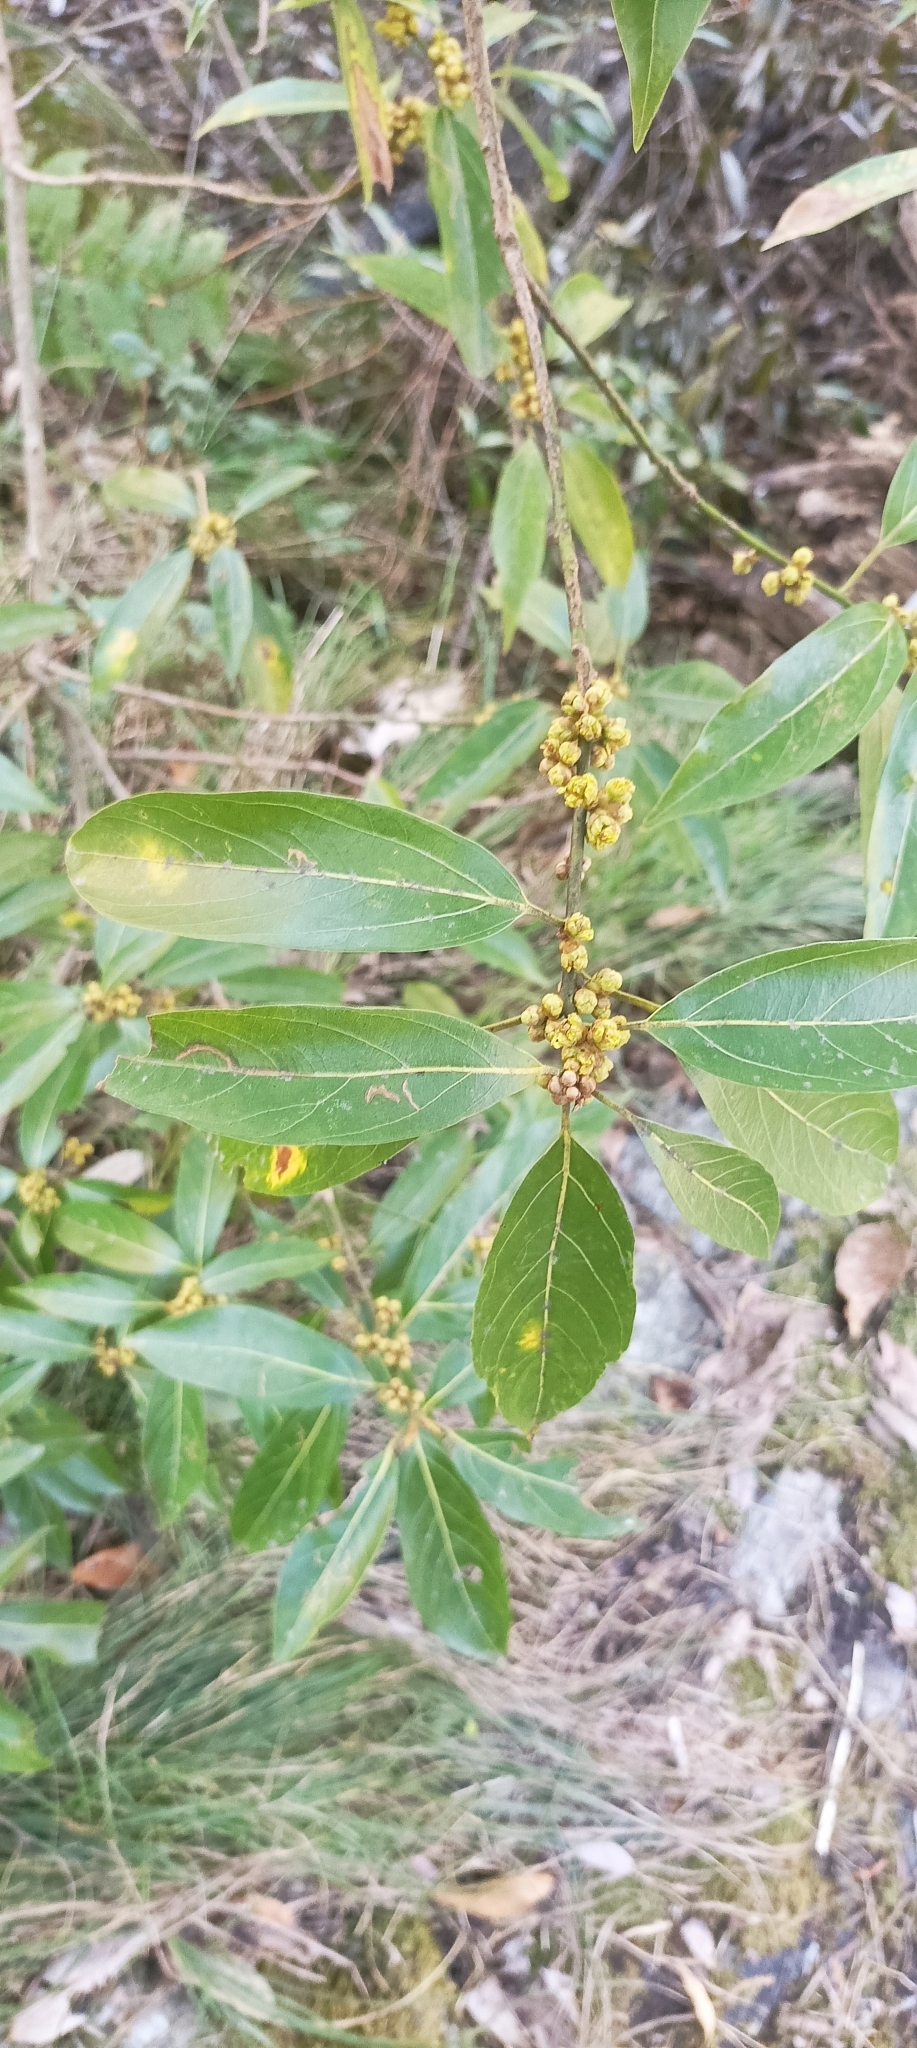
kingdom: Plantae
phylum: Tracheophyta
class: Magnoliopsida
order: Laurales
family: Lauraceae
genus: Neolitsea
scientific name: Neolitsea pallens
